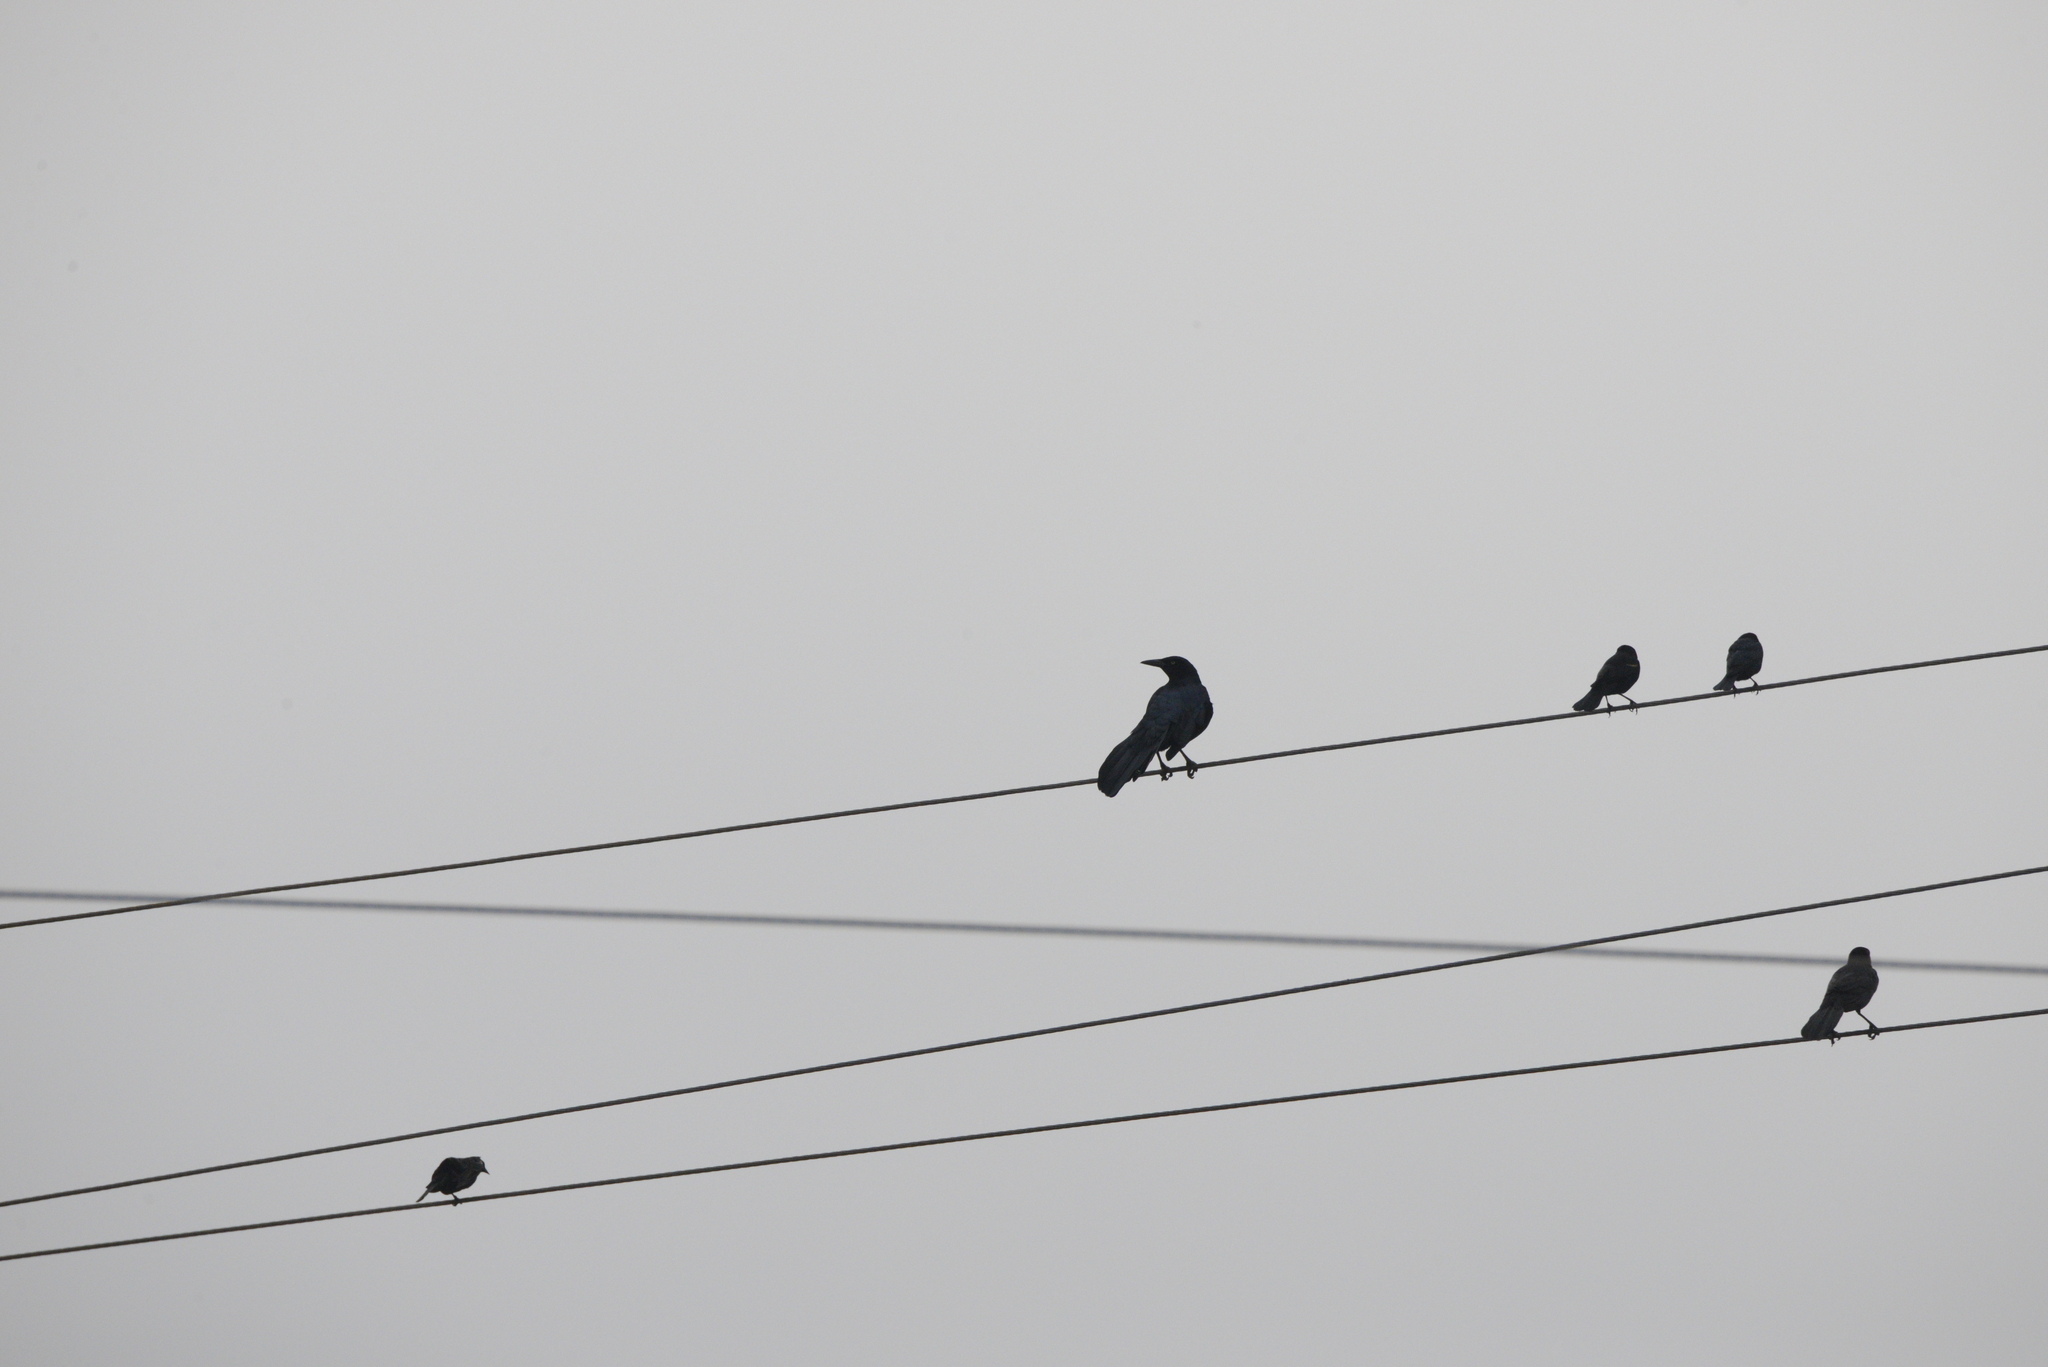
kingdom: Animalia
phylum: Chordata
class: Aves
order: Passeriformes
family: Icteridae
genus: Agelaius
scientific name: Agelaius phoeniceus
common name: Red-winged blackbird
